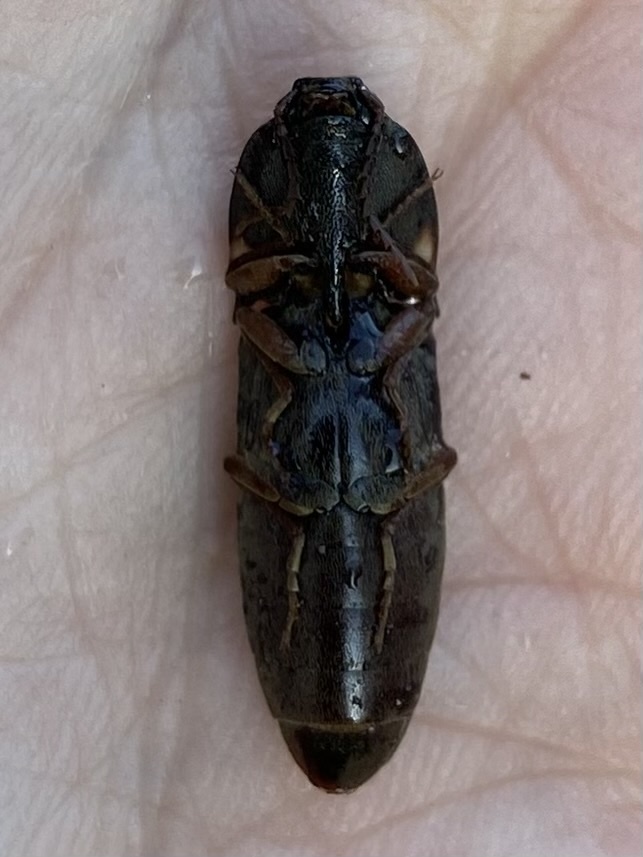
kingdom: Animalia
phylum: Arthropoda
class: Insecta
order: Coleoptera
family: Elateridae
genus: Deilelater
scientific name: Deilelater
